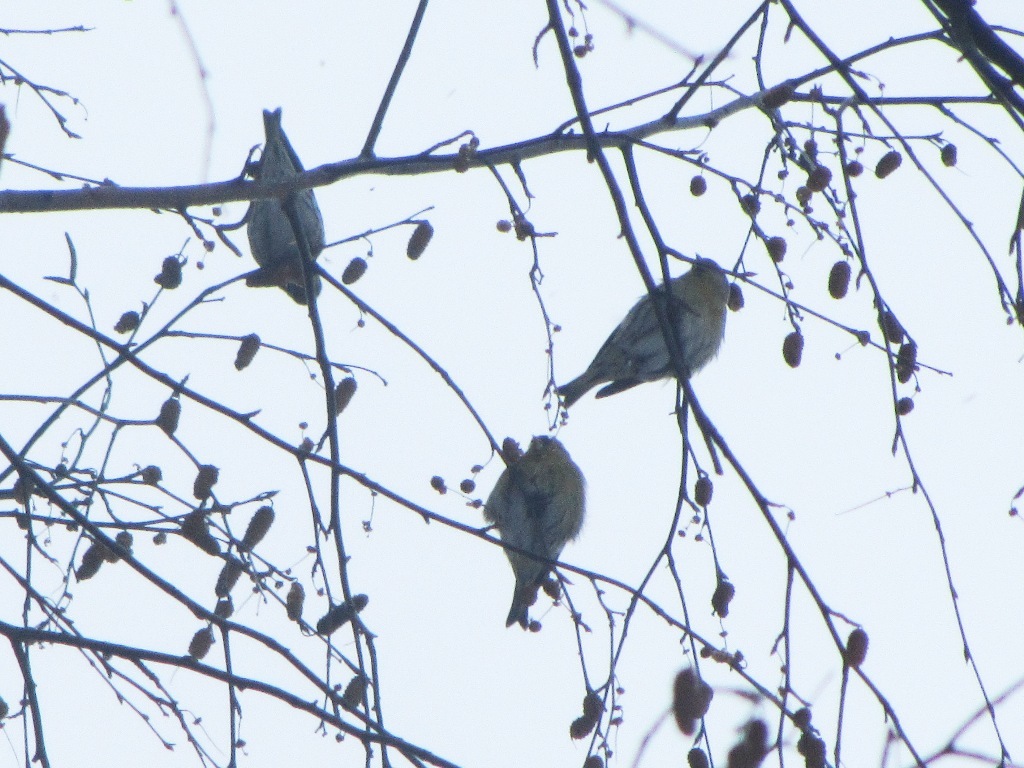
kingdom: Animalia
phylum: Chordata
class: Aves
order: Passeriformes
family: Fringillidae
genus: Spinus
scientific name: Spinus spinus
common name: Eurasian siskin
